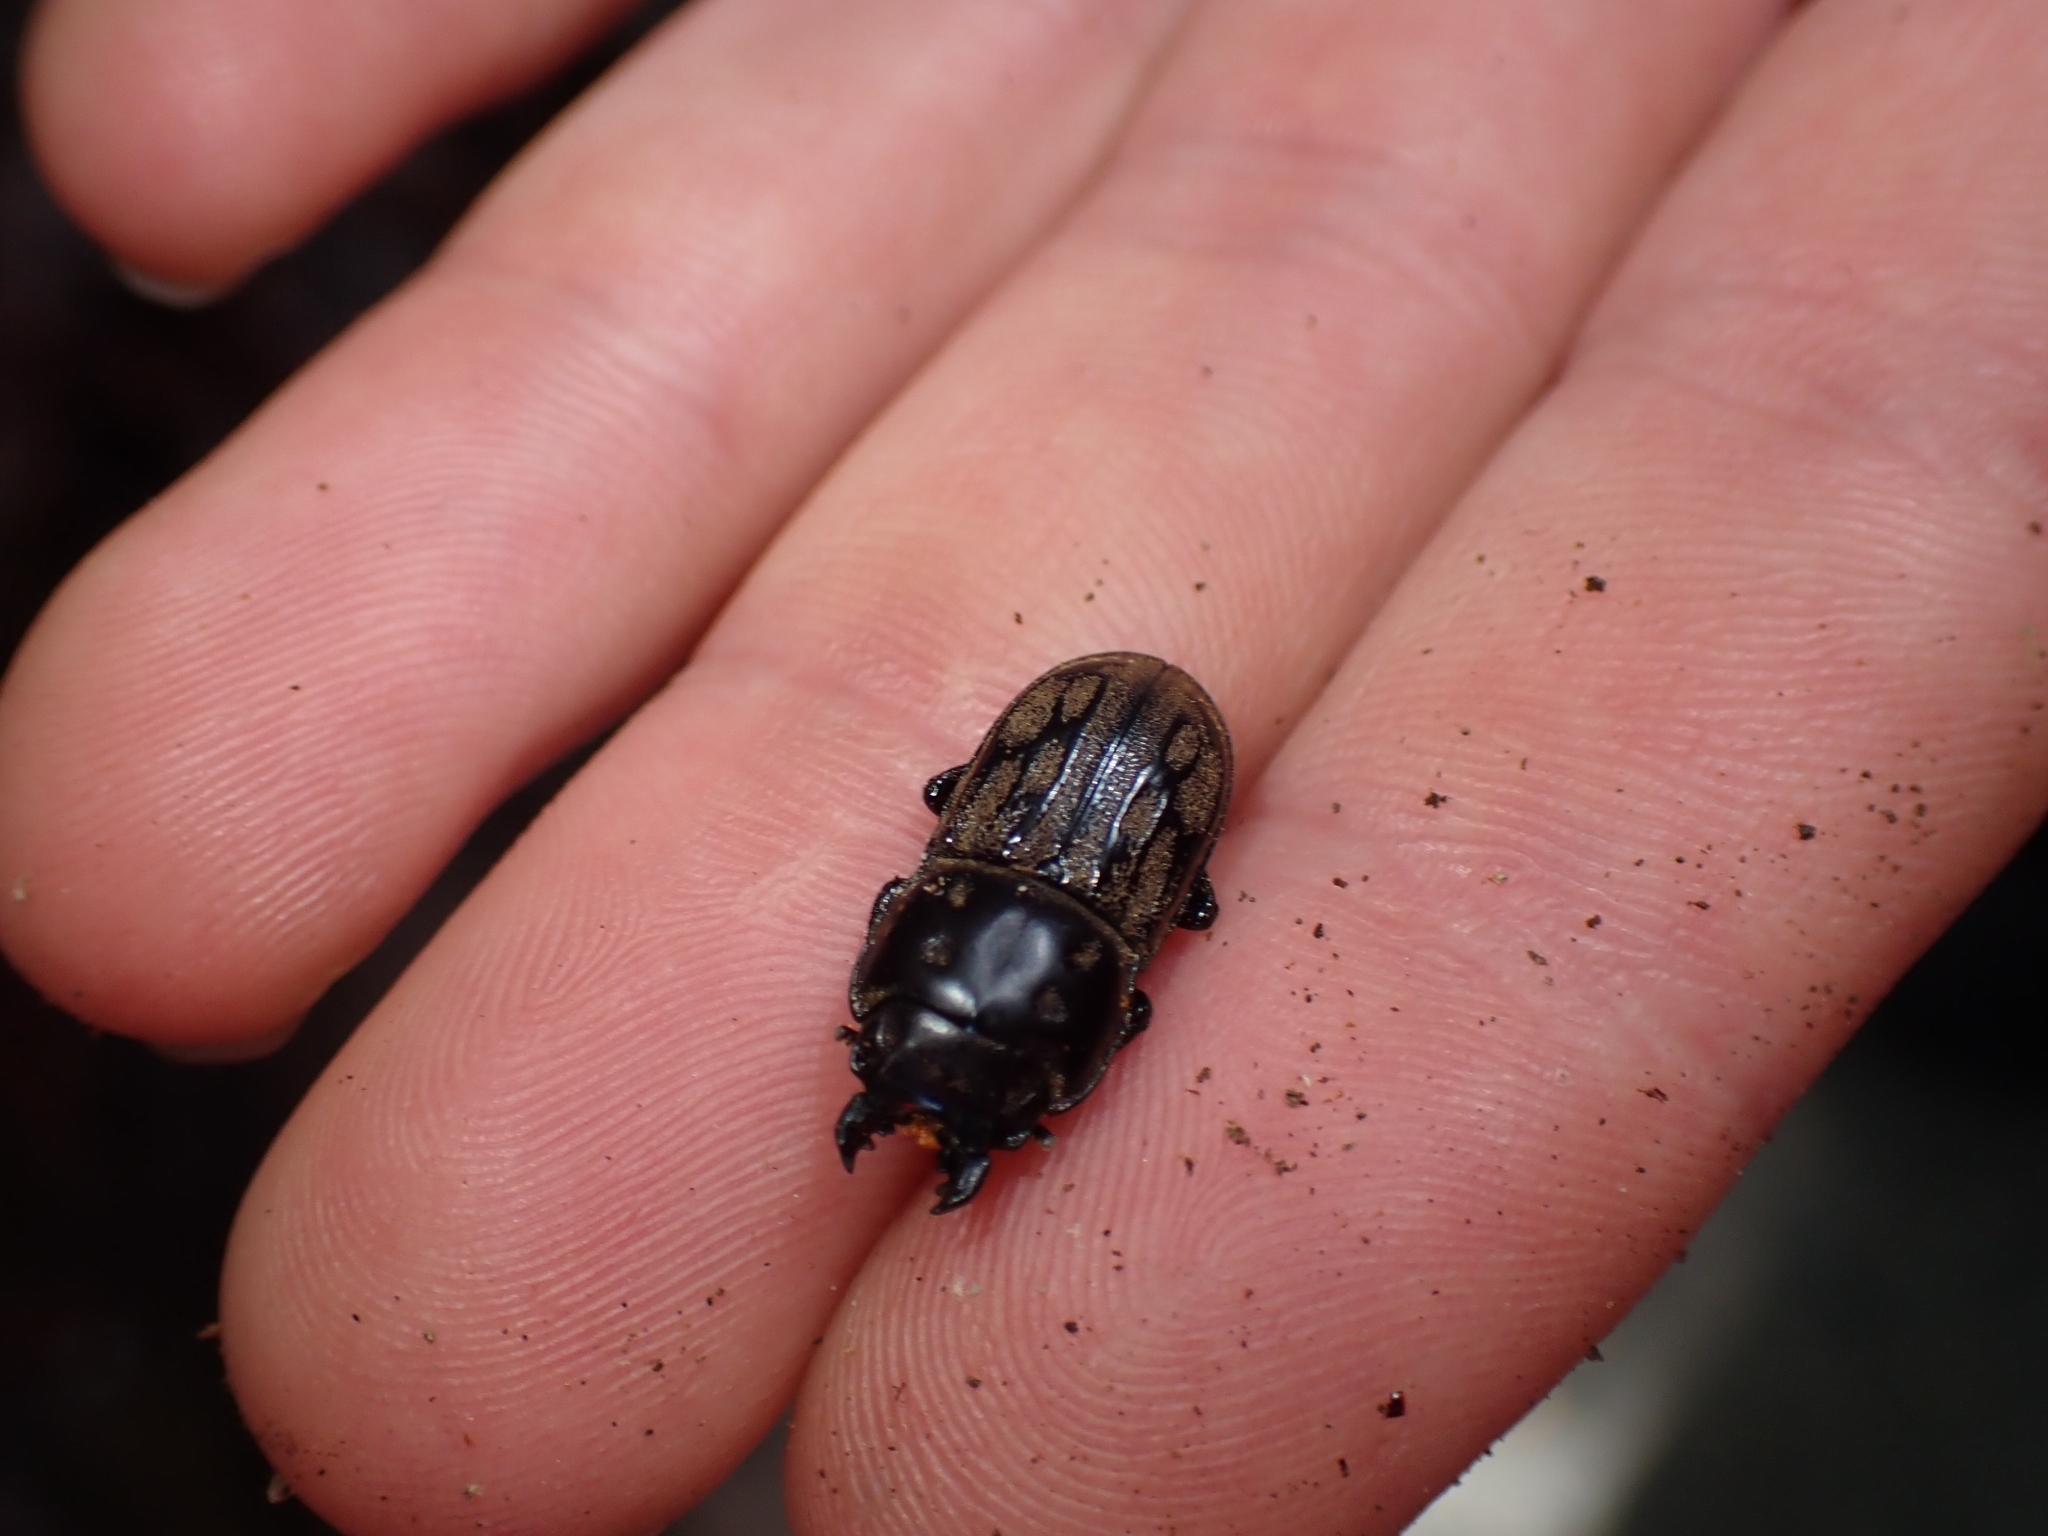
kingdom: Animalia
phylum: Arthropoda
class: Insecta
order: Coleoptera
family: Lucanidae
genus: Paralissotes
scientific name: Paralissotes reticulatus
